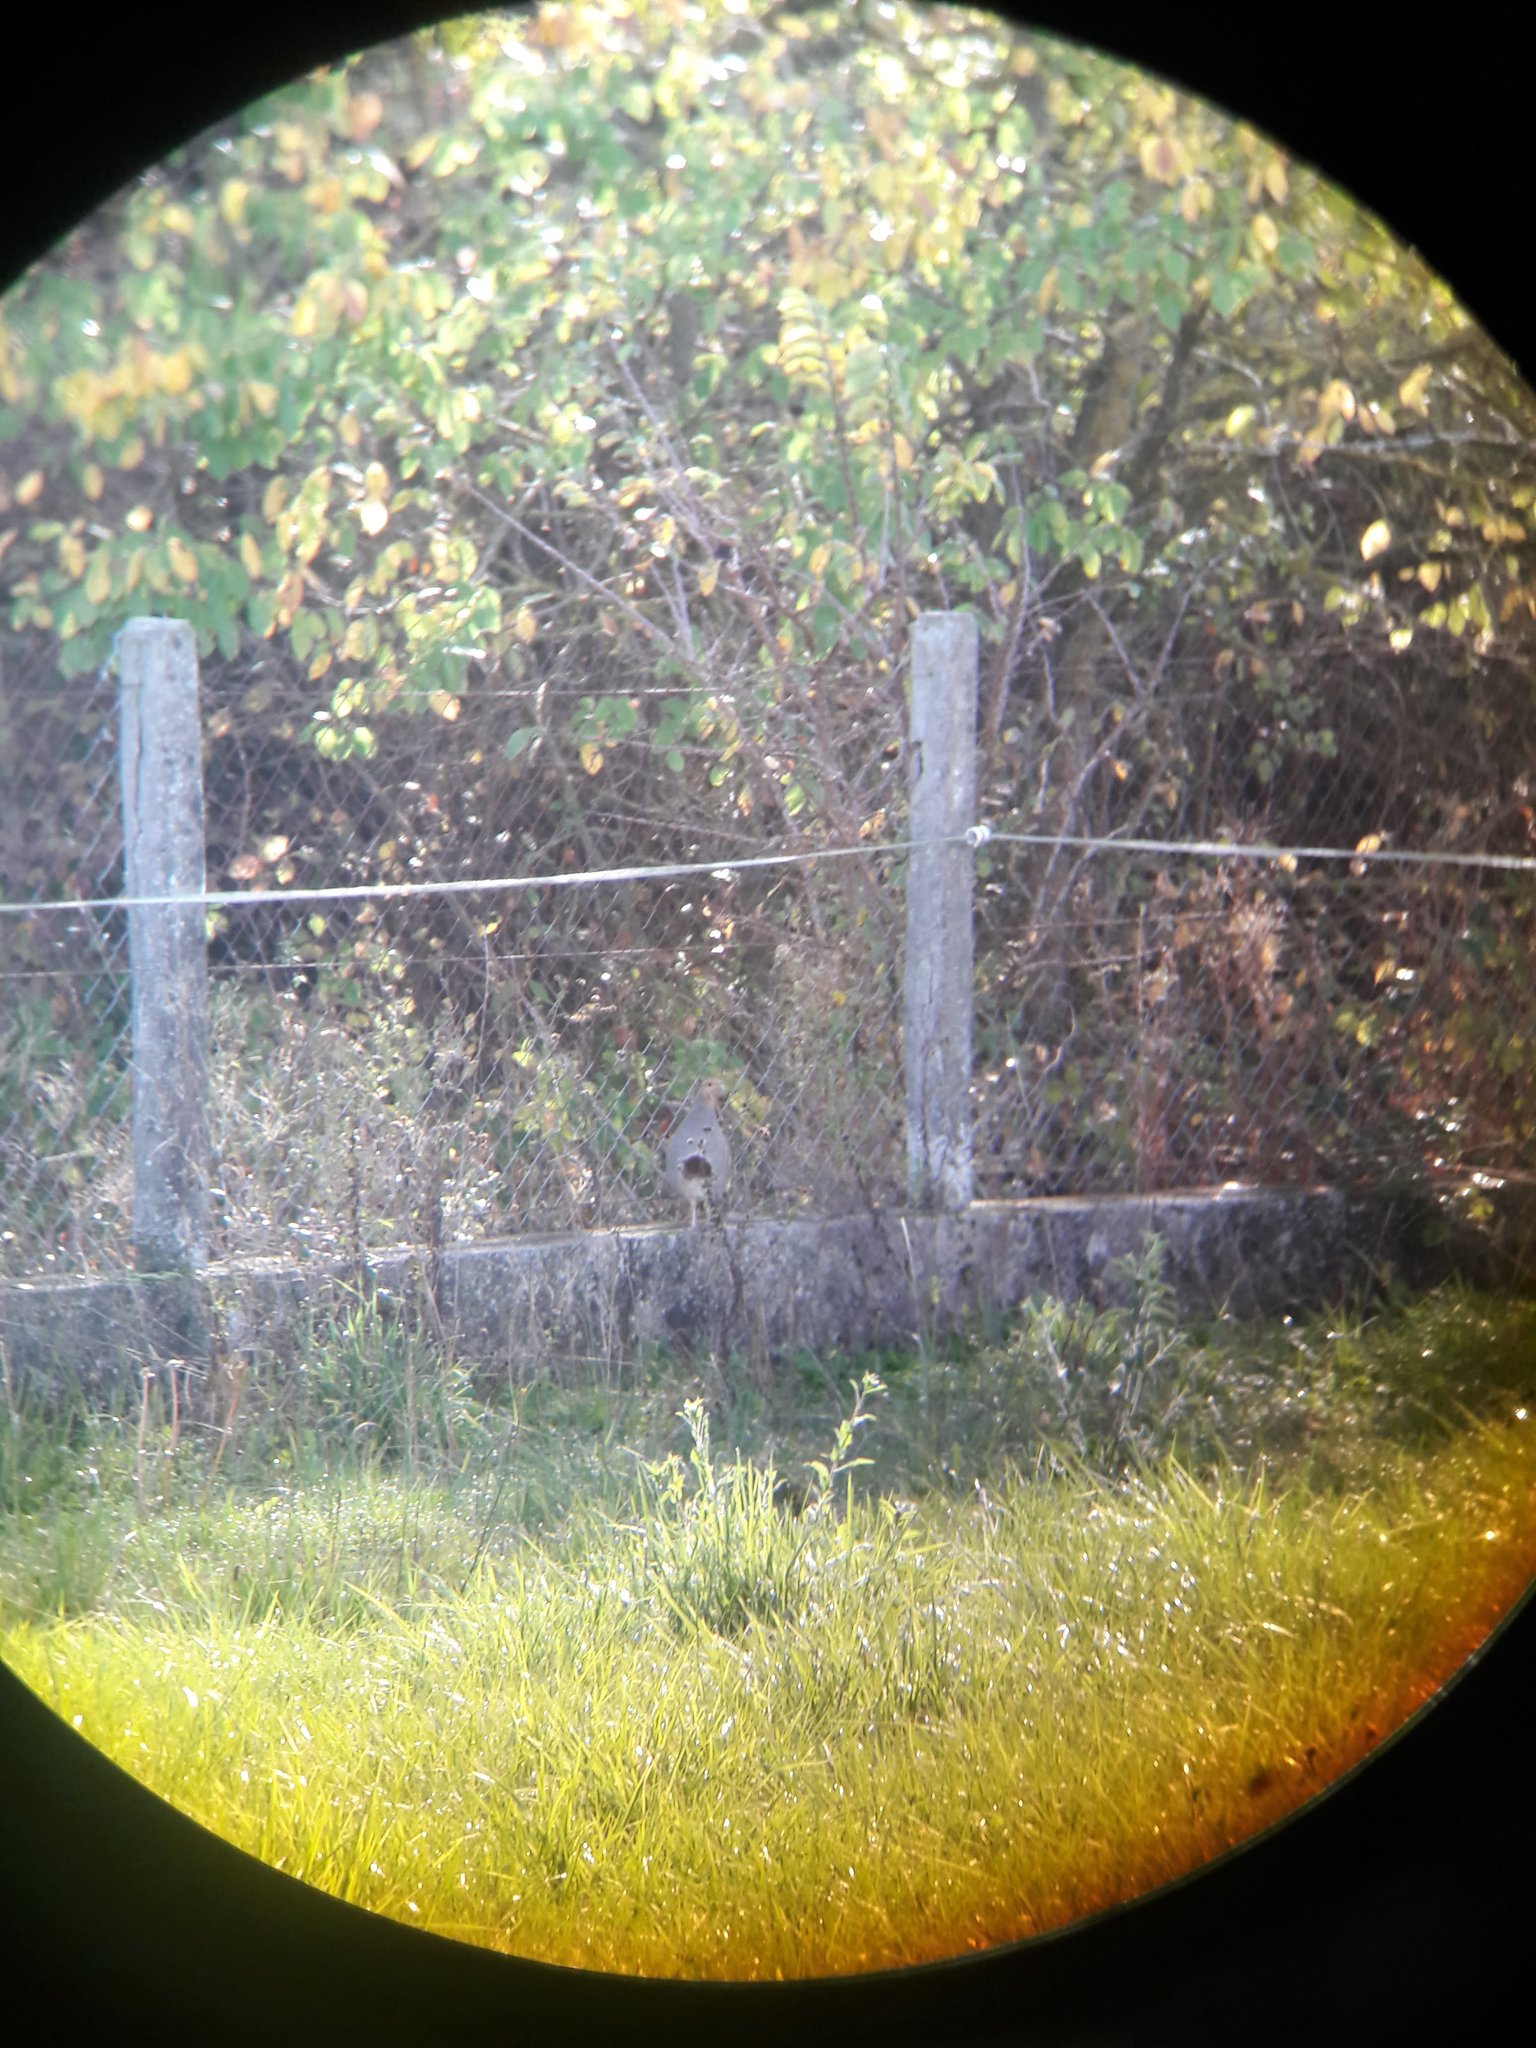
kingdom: Animalia
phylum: Chordata
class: Aves
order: Galliformes
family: Phasianidae
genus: Perdix
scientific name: Perdix perdix
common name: Grey partridge
